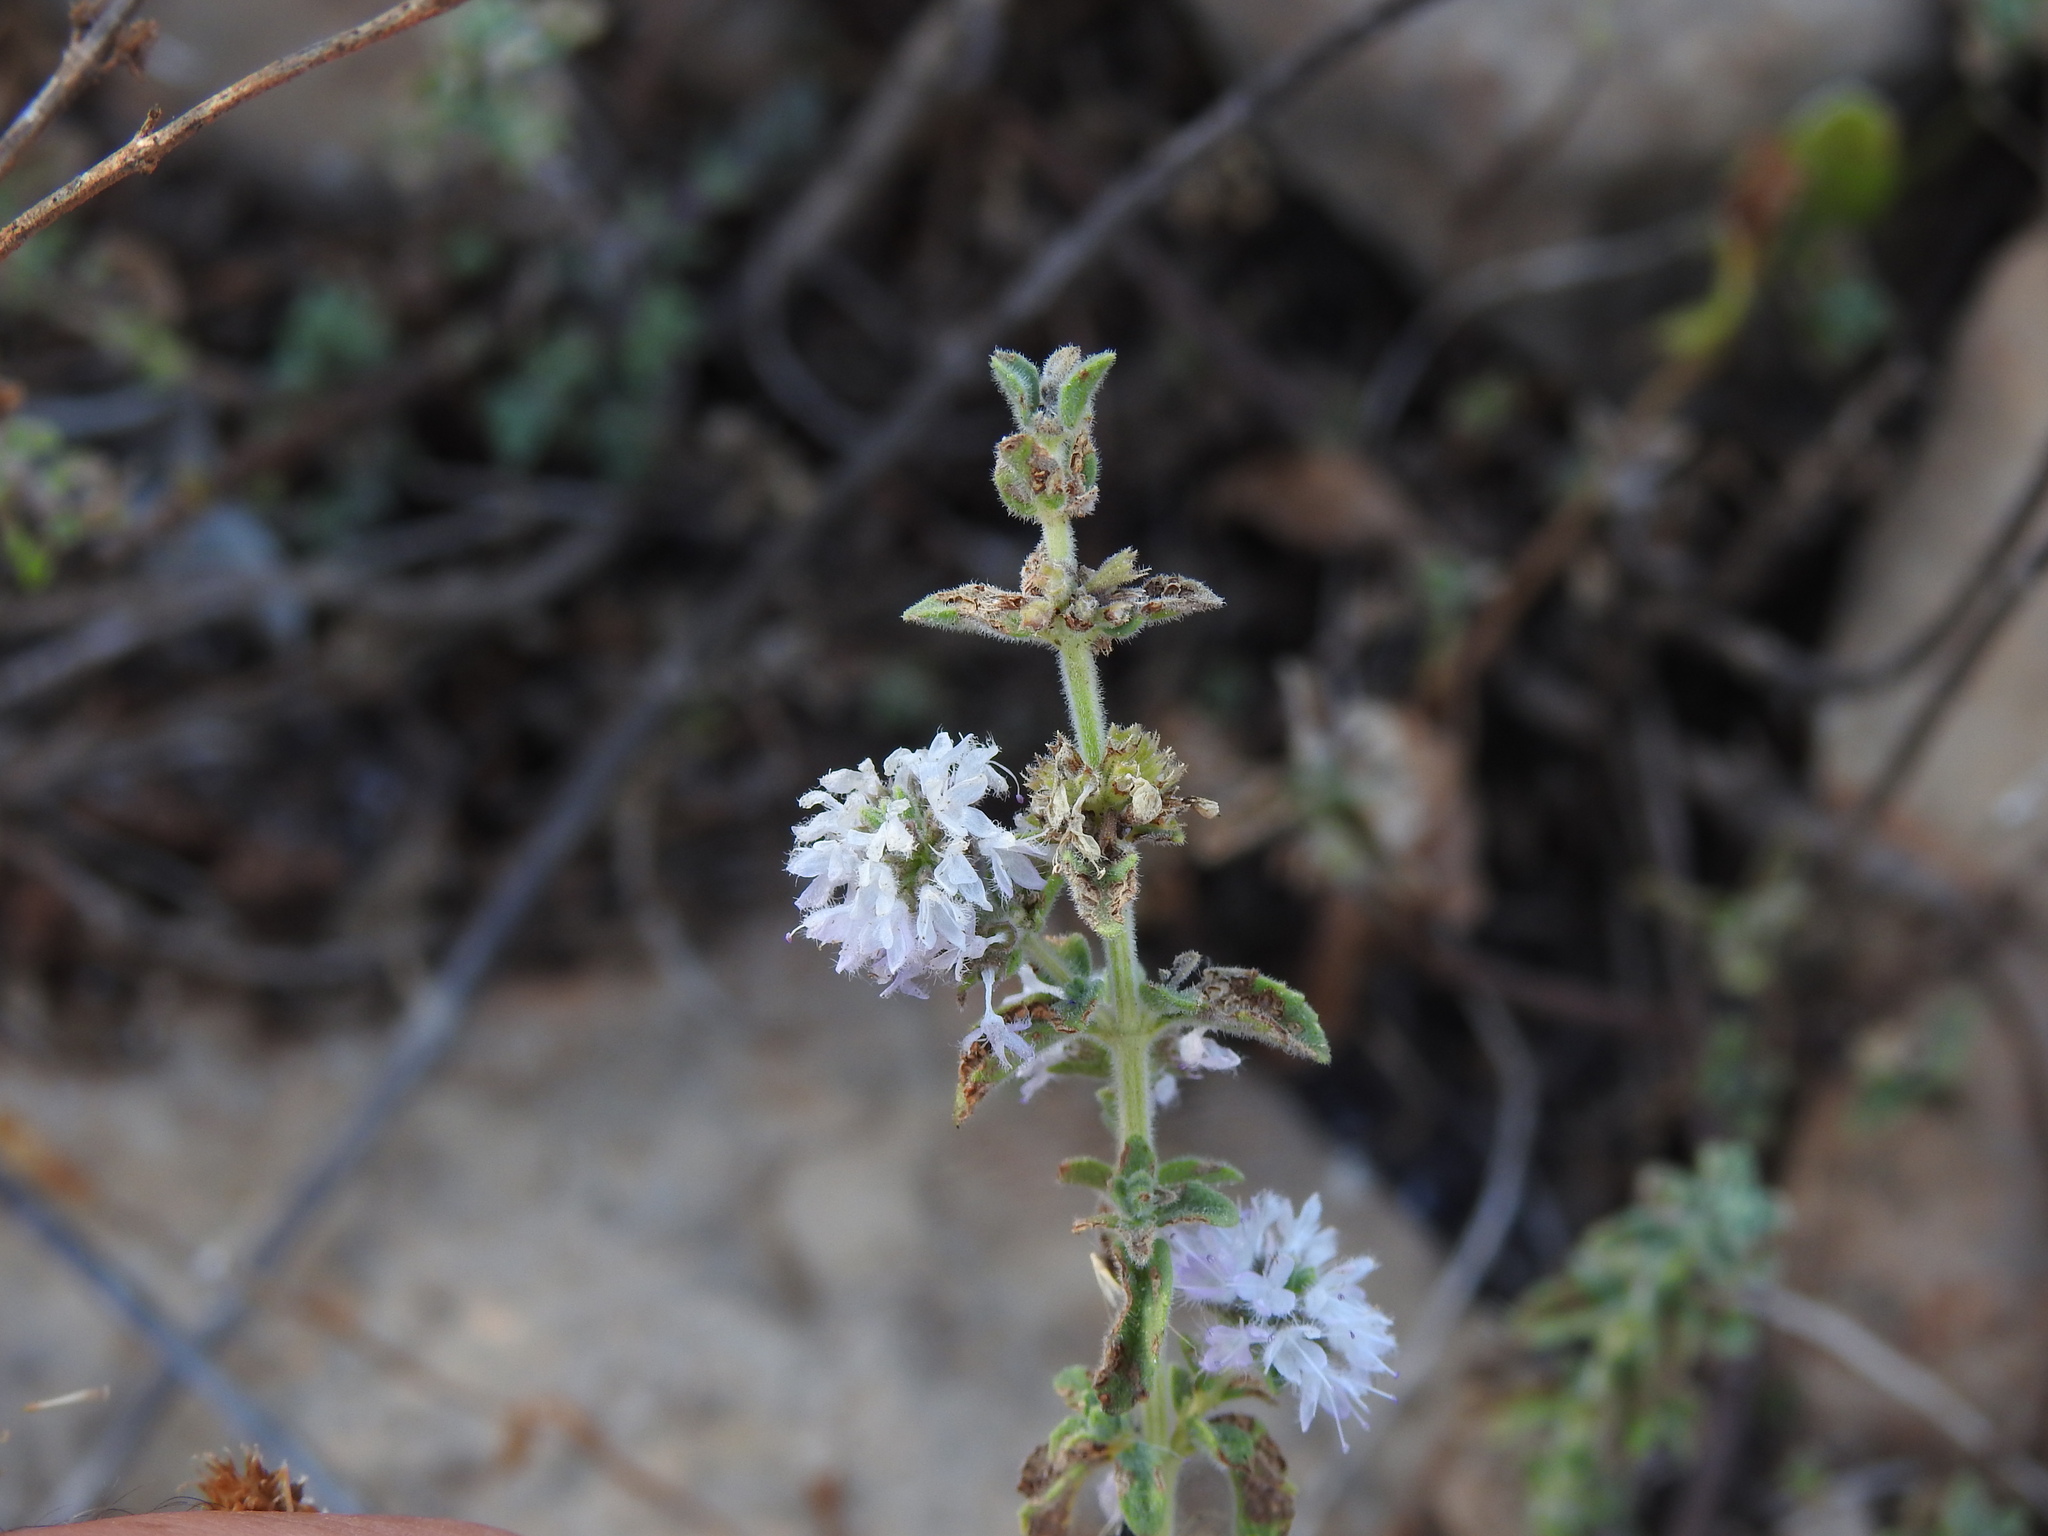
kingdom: Plantae
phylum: Tracheophyta
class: Magnoliopsida
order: Lamiales
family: Lamiaceae
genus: Mentha
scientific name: Mentha pulegium
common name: Pennyroyal
